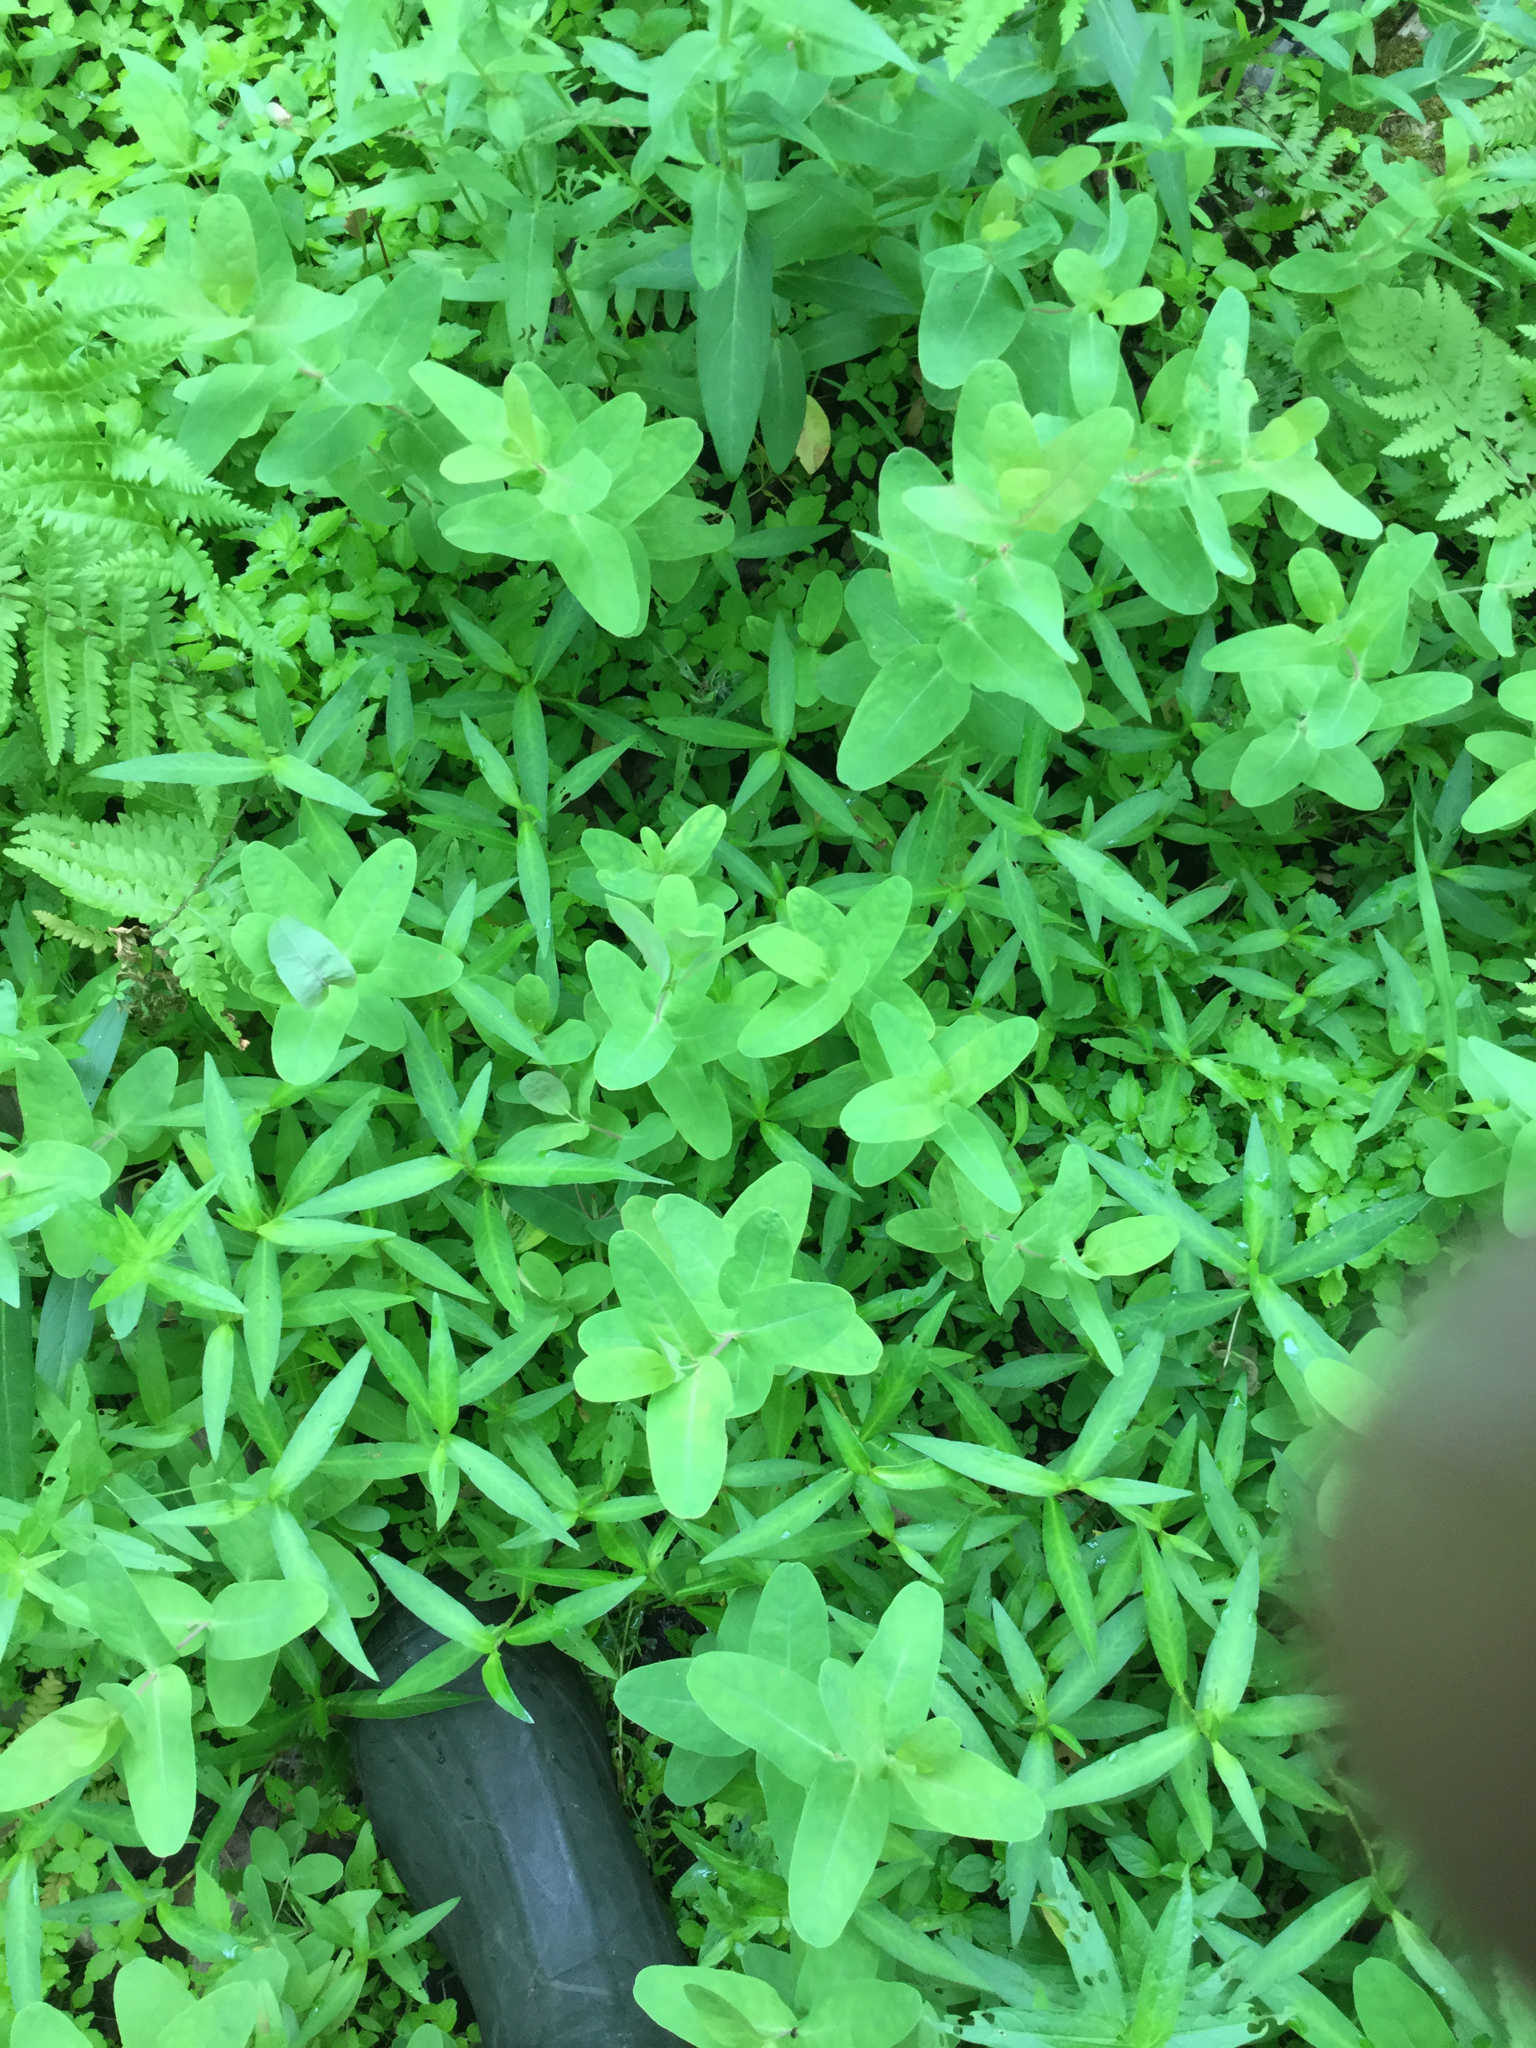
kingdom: Plantae
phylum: Tracheophyta
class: Magnoliopsida
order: Malpighiales
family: Hypericaceae
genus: Triadenum
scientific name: Triadenum virginicum
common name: Marsh st. john's-wort
